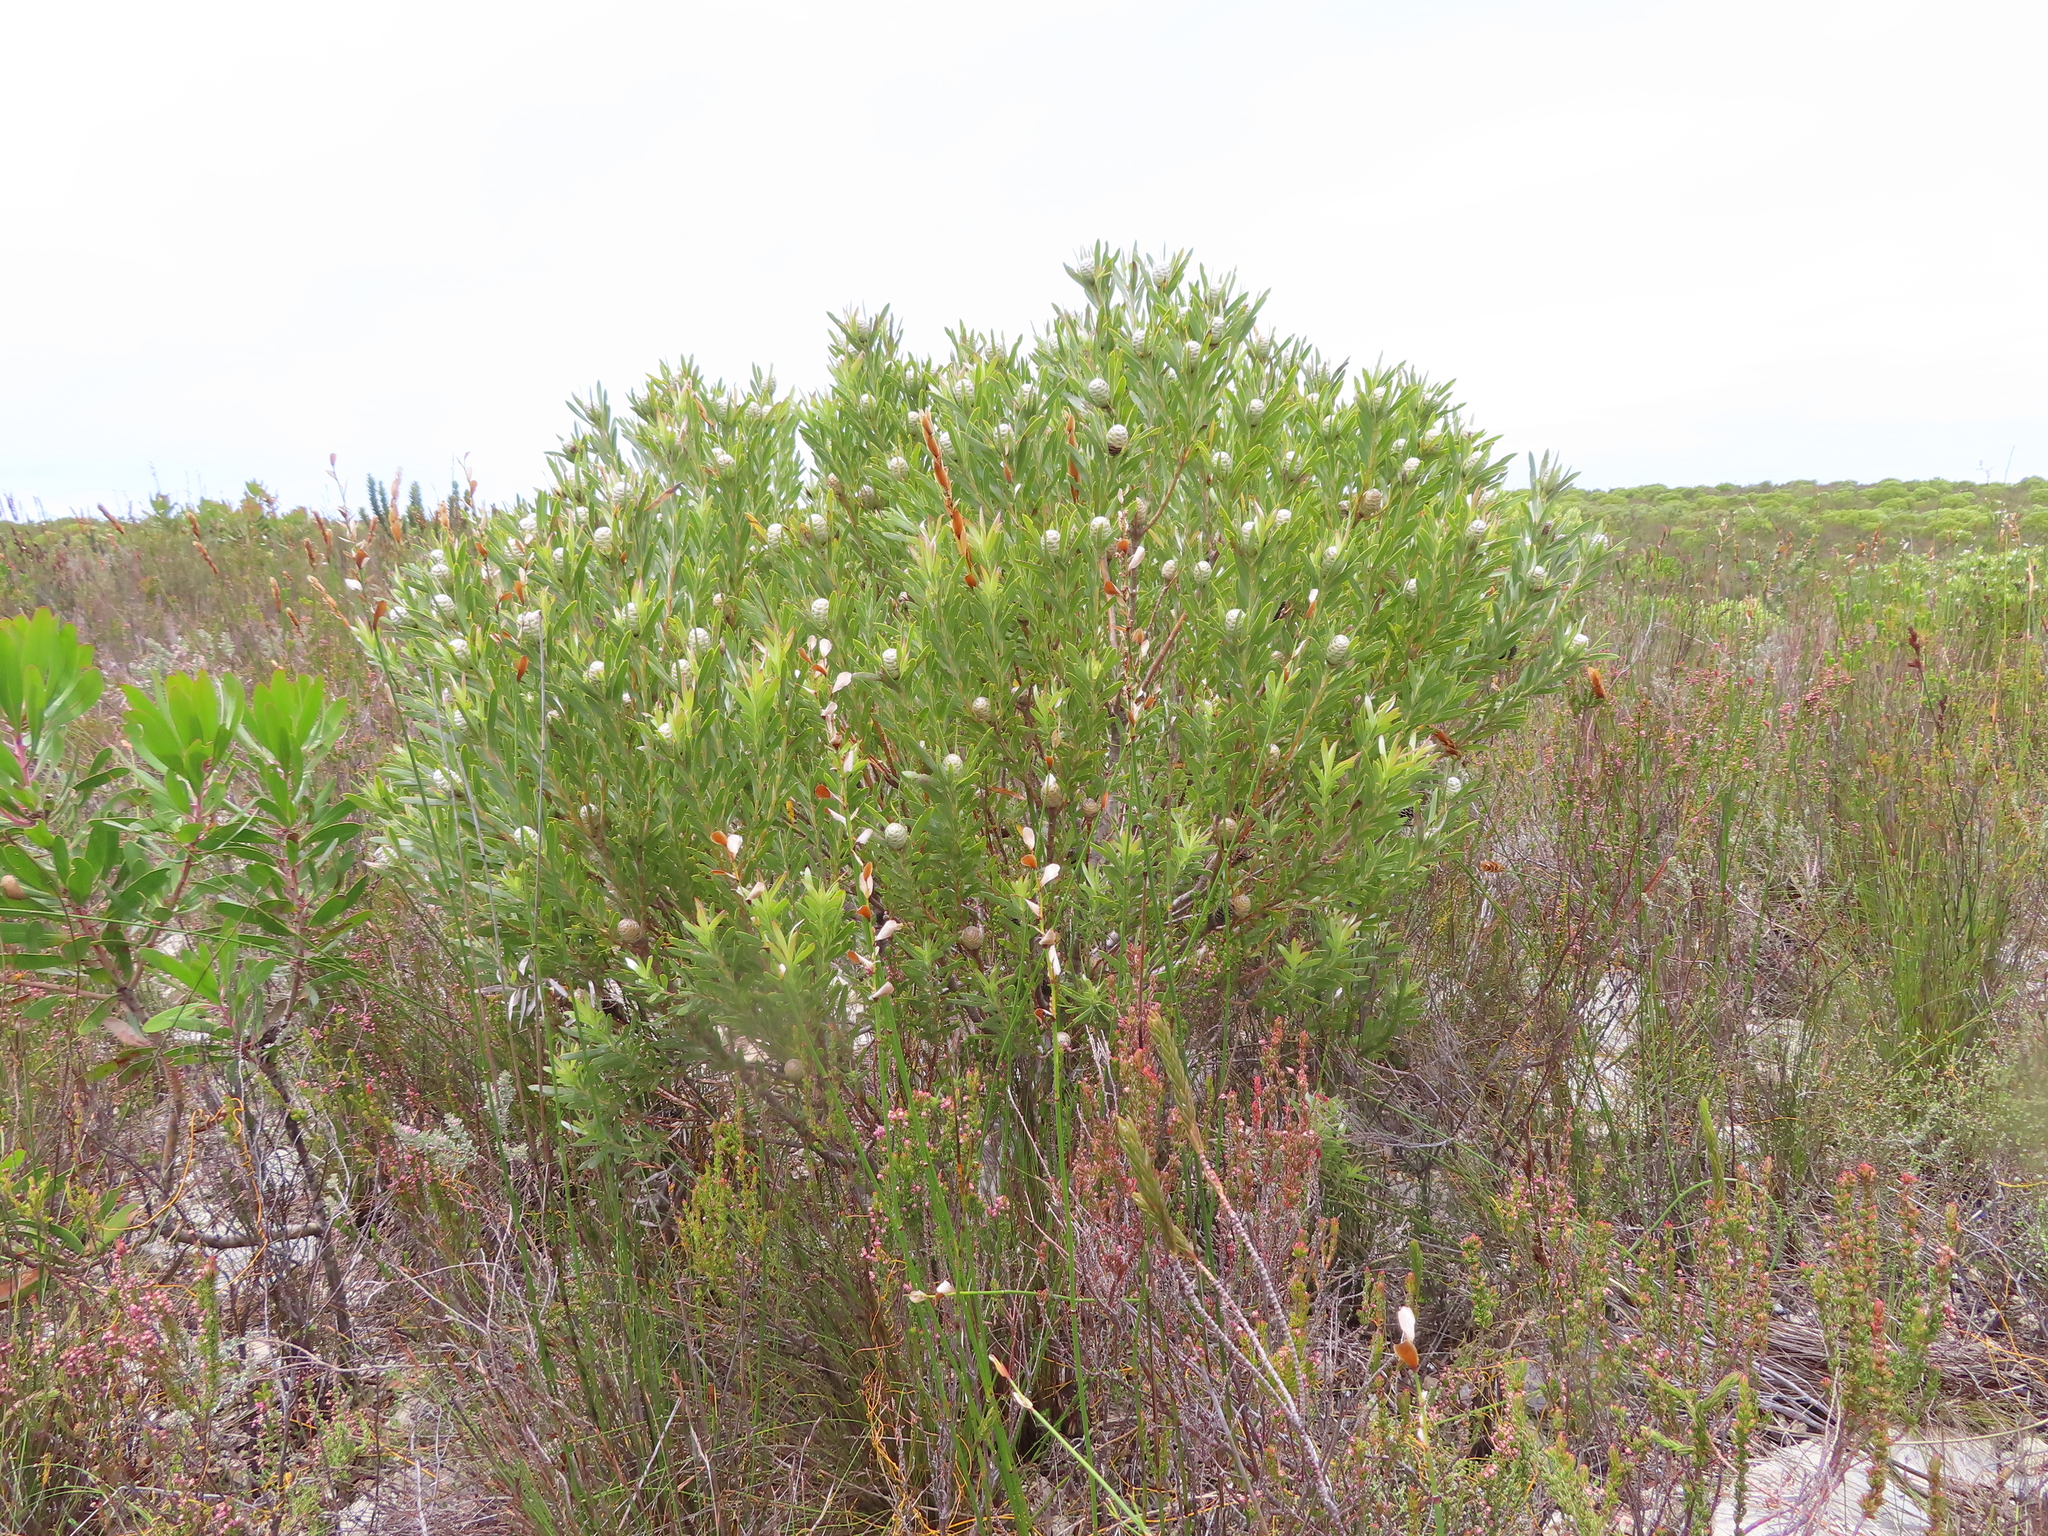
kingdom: Plantae
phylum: Tracheophyta
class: Magnoliopsida
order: Proteales
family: Proteaceae
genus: Leucadendron
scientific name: Leucadendron meridianum
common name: Limestone conebush
